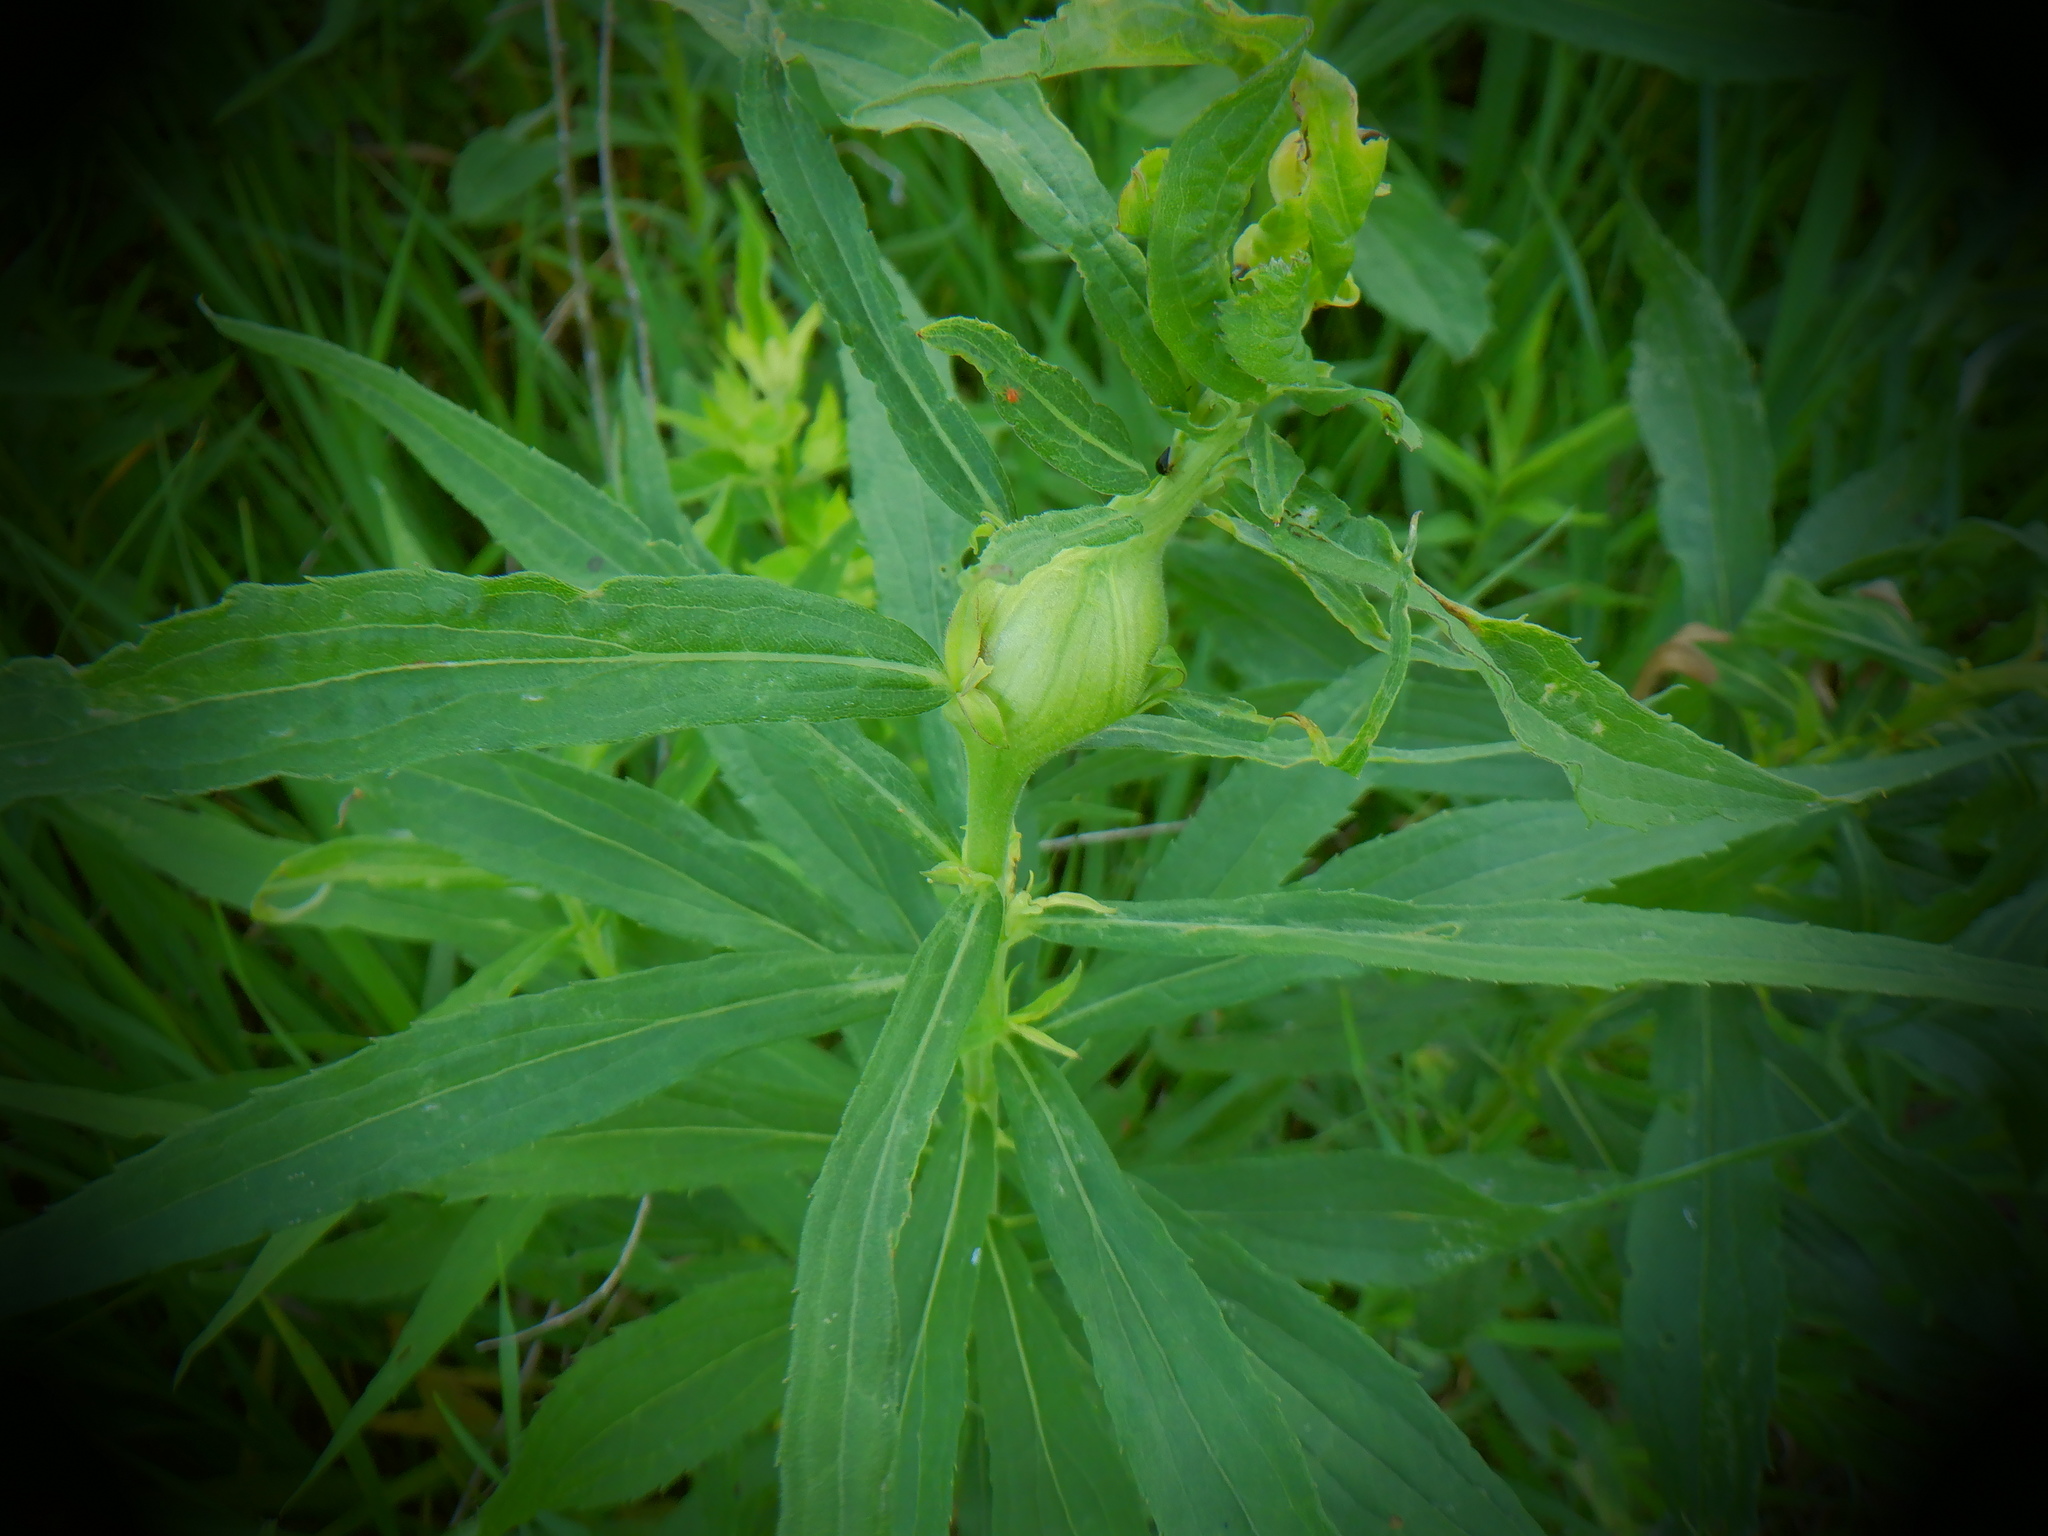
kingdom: Animalia
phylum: Arthropoda
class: Insecta
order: Diptera
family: Tephritidae
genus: Eurosta
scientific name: Eurosta solidaginis
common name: Goldenrod gall fly
